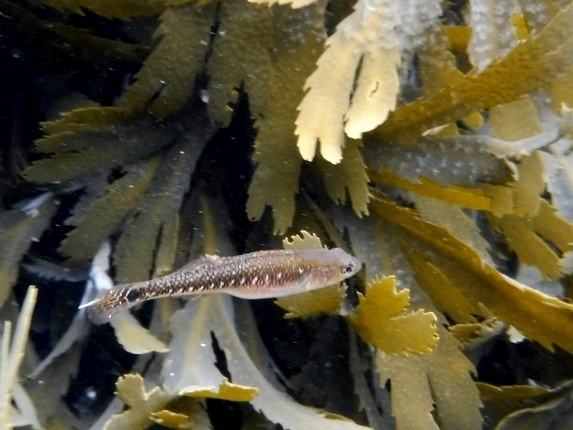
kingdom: Animalia
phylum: Chordata
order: Perciformes
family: Gobiidae
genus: Gobiusculus
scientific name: Gobiusculus flavescens
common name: Two-spotted goby
